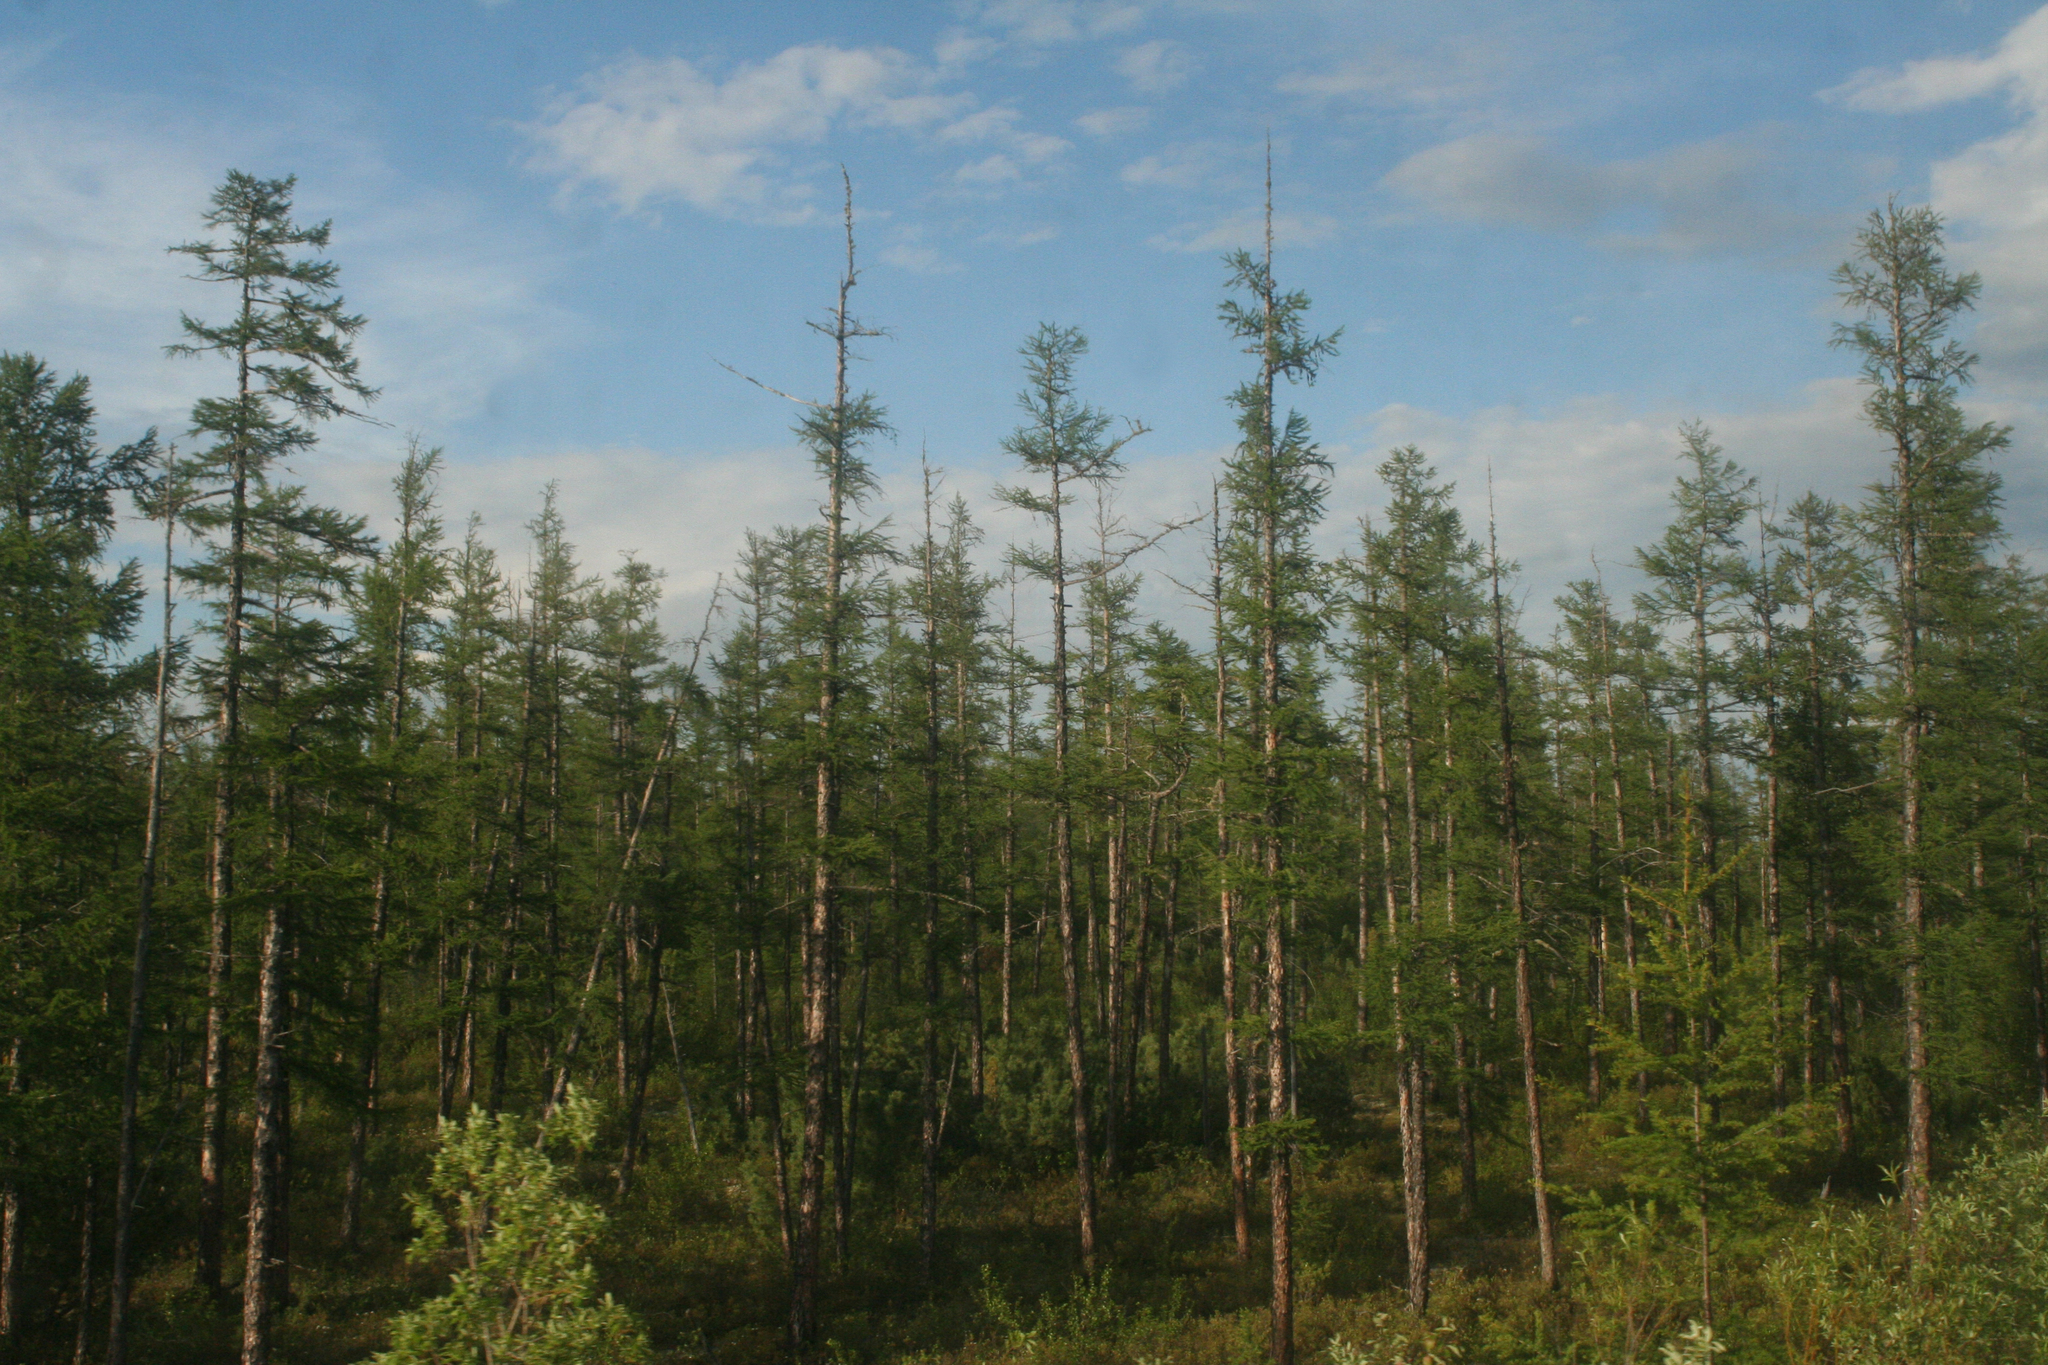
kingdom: Plantae
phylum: Tracheophyta
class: Pinopsida
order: Pinales
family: Pinaceae
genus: Larix
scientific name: Larix gmelinii
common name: Dahurian larch
